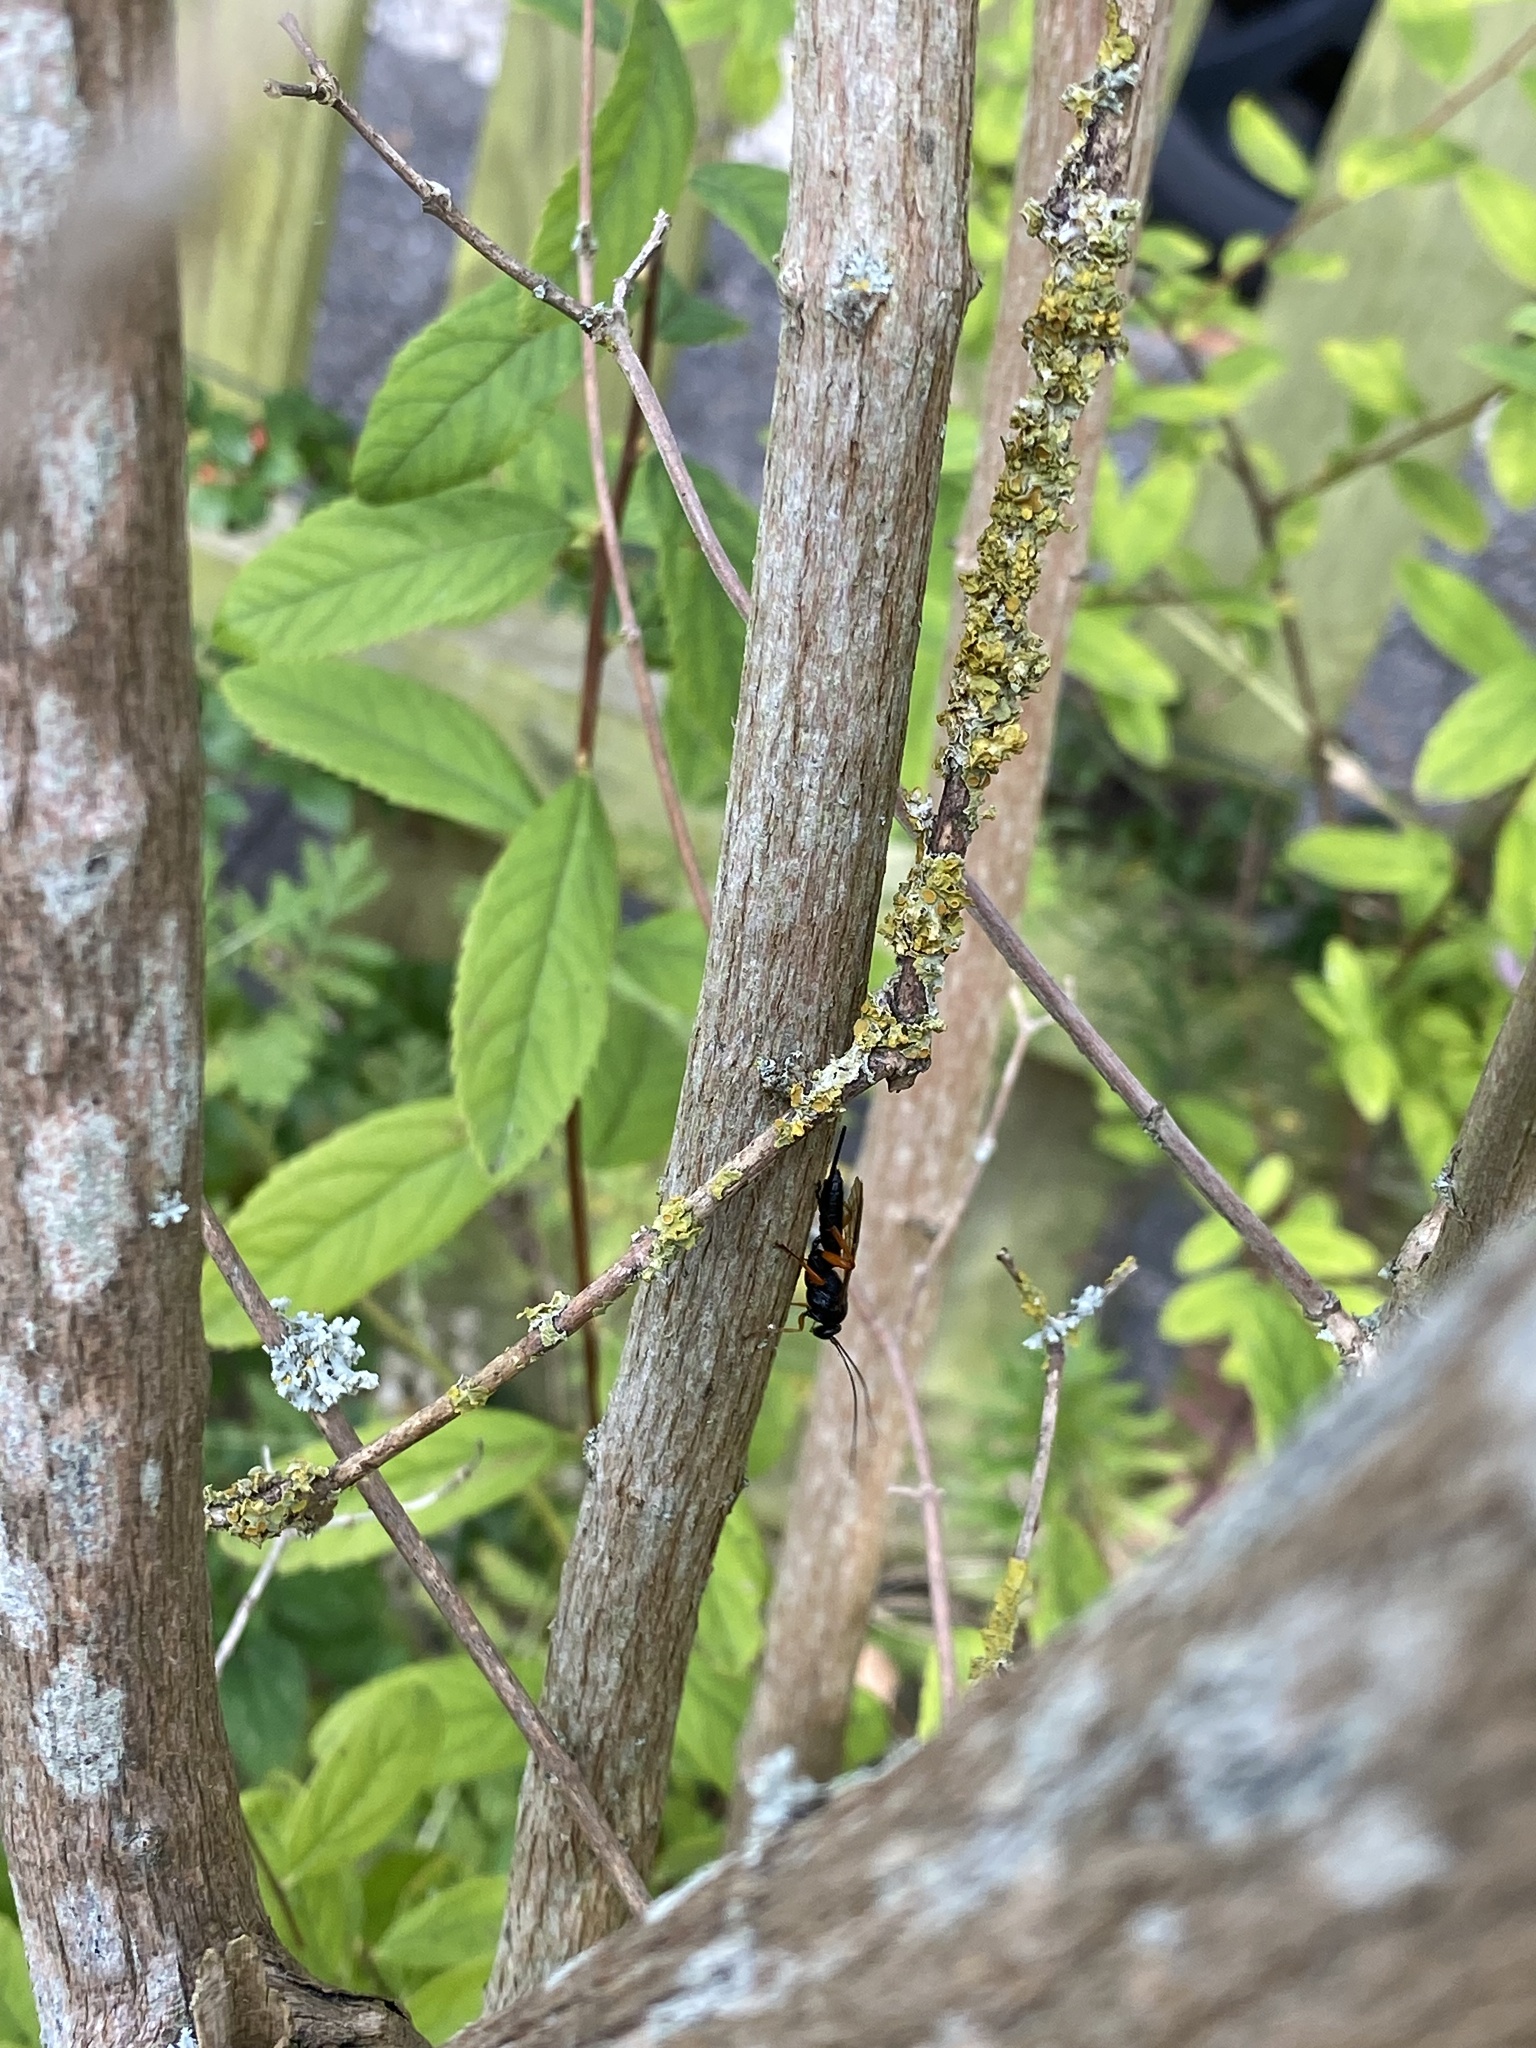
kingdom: Animalia
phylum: Arthropoda
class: Insecta
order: Hymenoptera
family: Ichneumonidae
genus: Pimpla
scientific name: Pimpla rufipes
